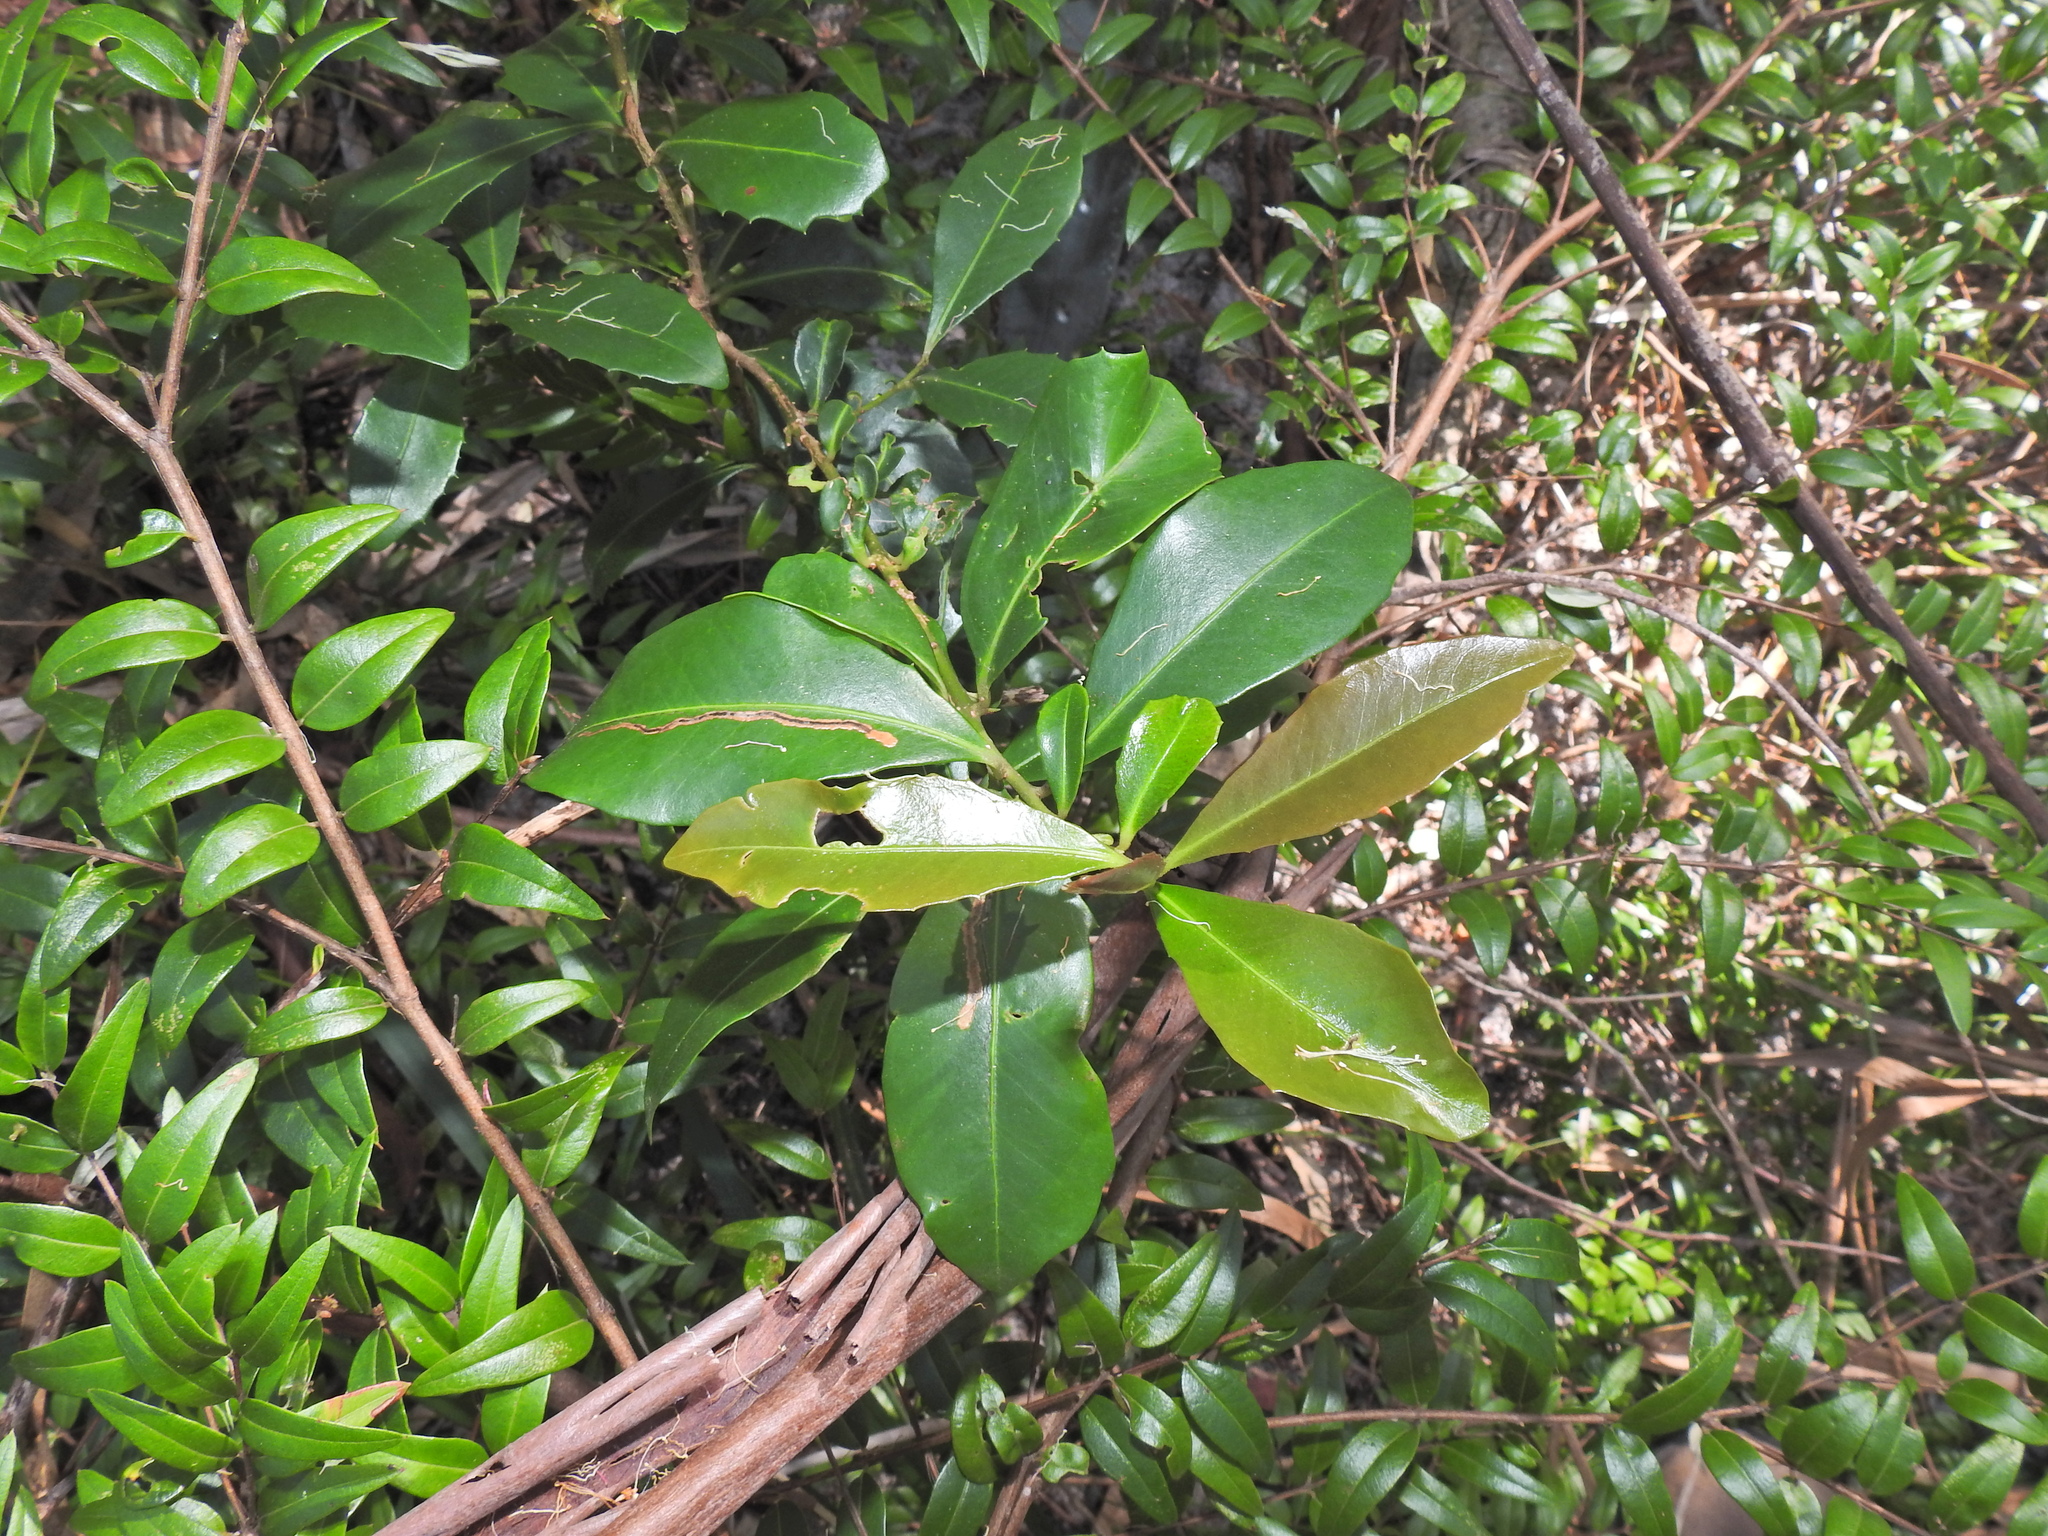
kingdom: Plantae
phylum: Tracheophyta
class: Magnoliopsida
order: Ericales
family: Primulaceae
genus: Myrsine
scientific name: Myrsine variabilis
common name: Brush muttonwood
